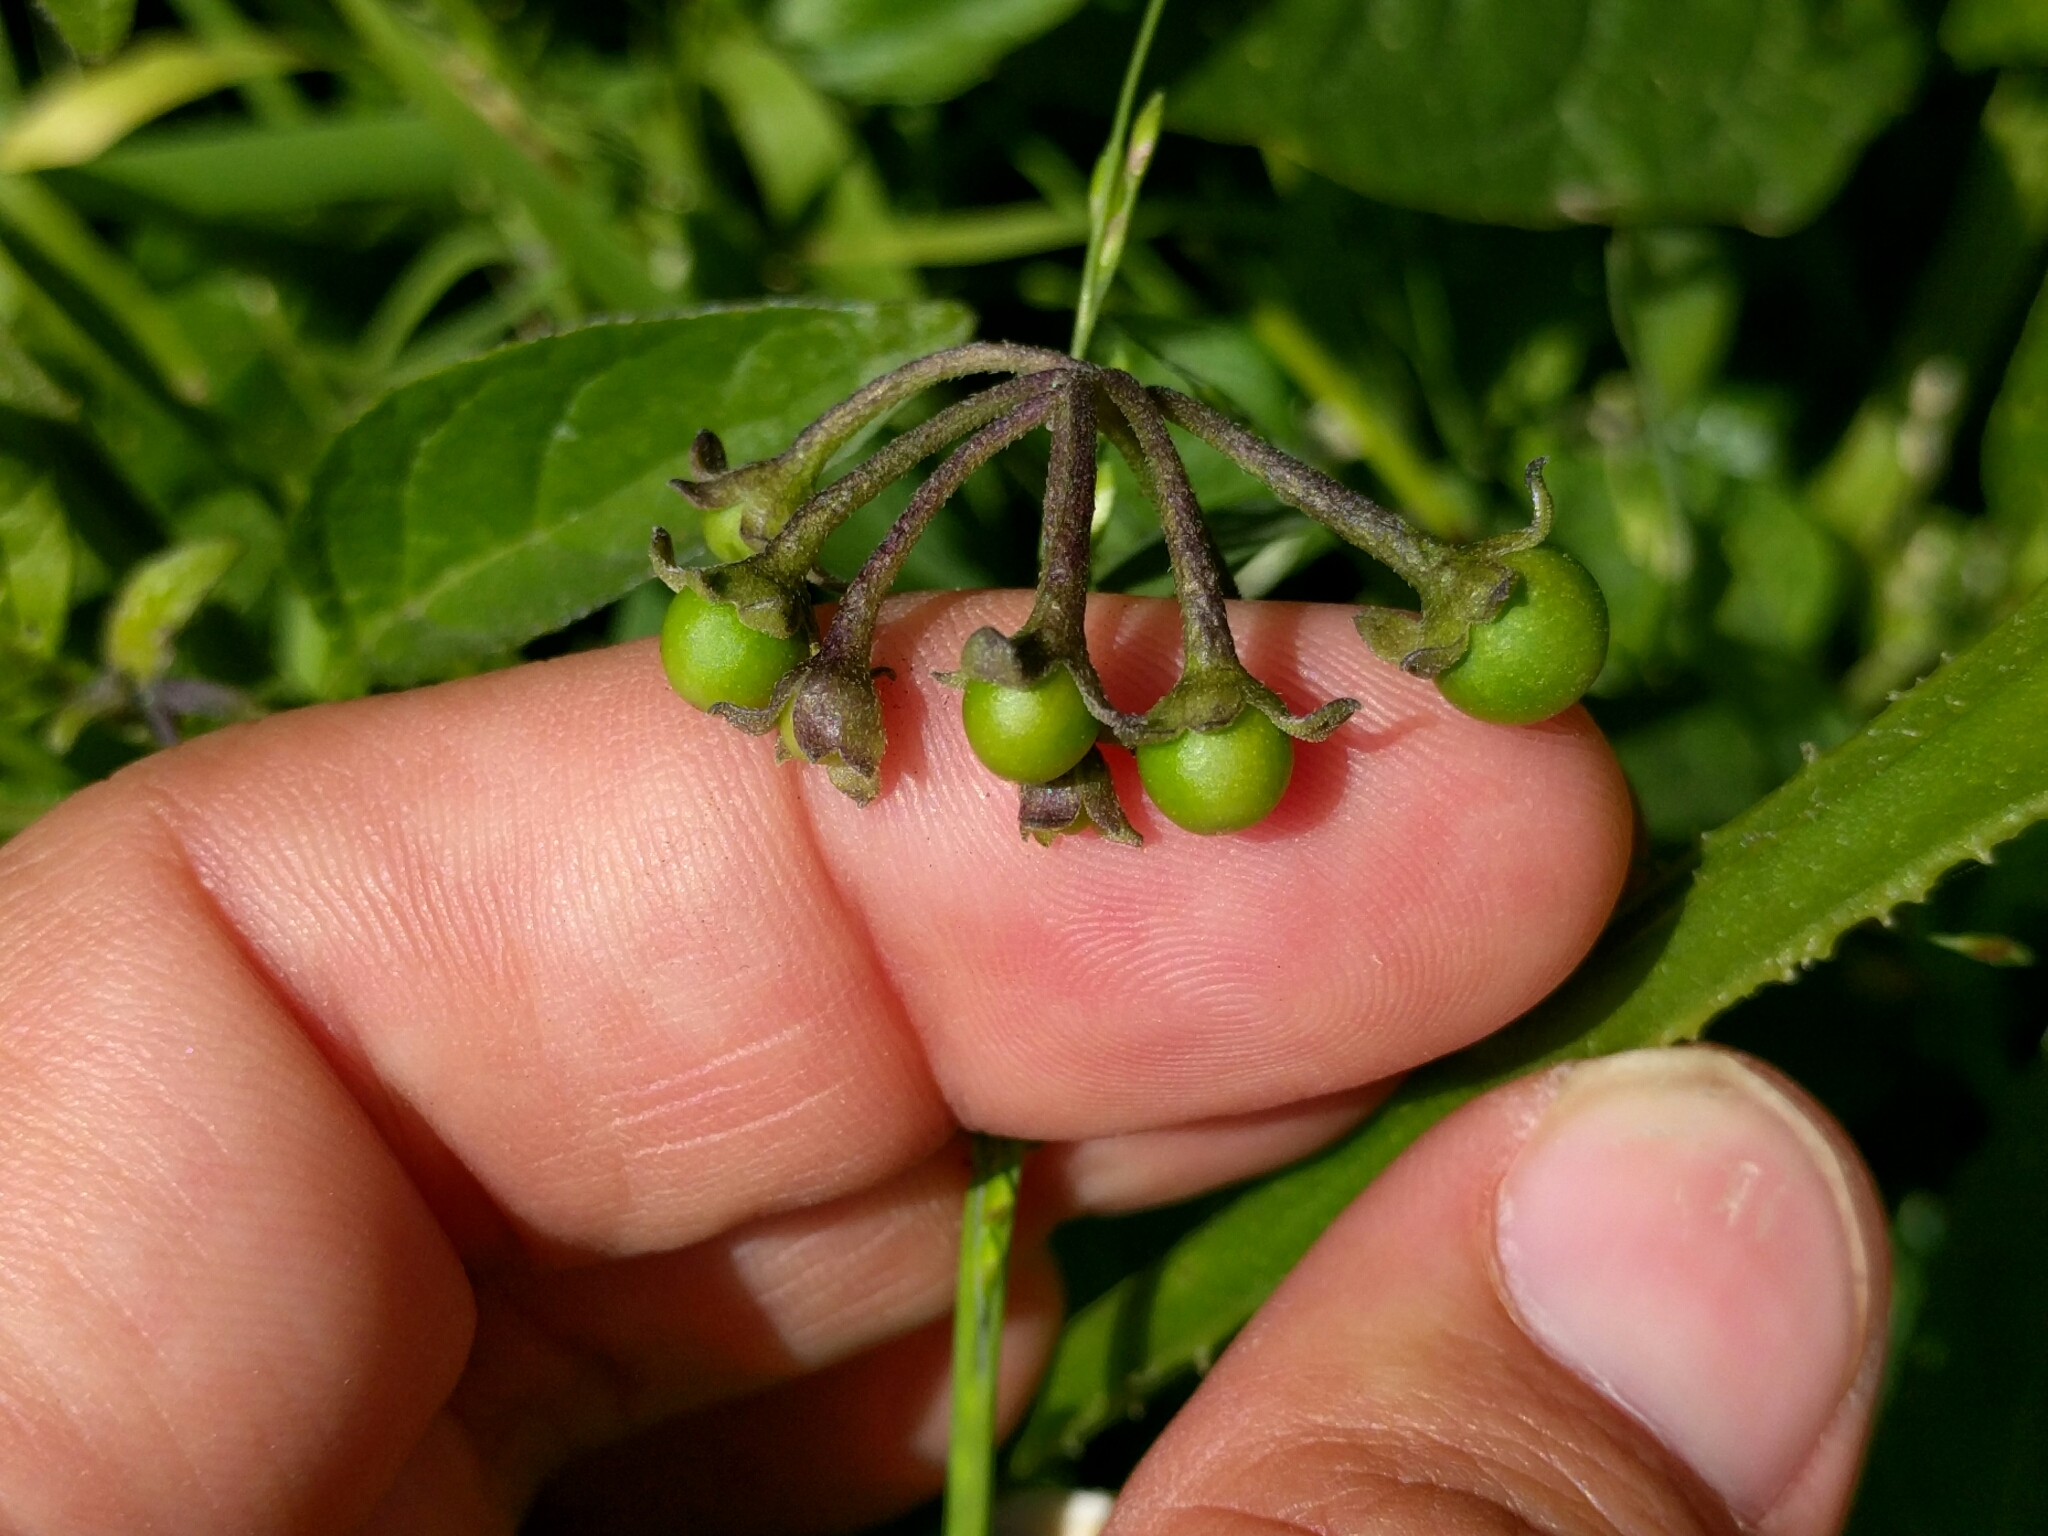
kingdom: Plantae
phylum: Tracheophyta
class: Magnoliopsida
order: Solanales
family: Solanaceae
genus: Solanum
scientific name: Solanum douglasii
